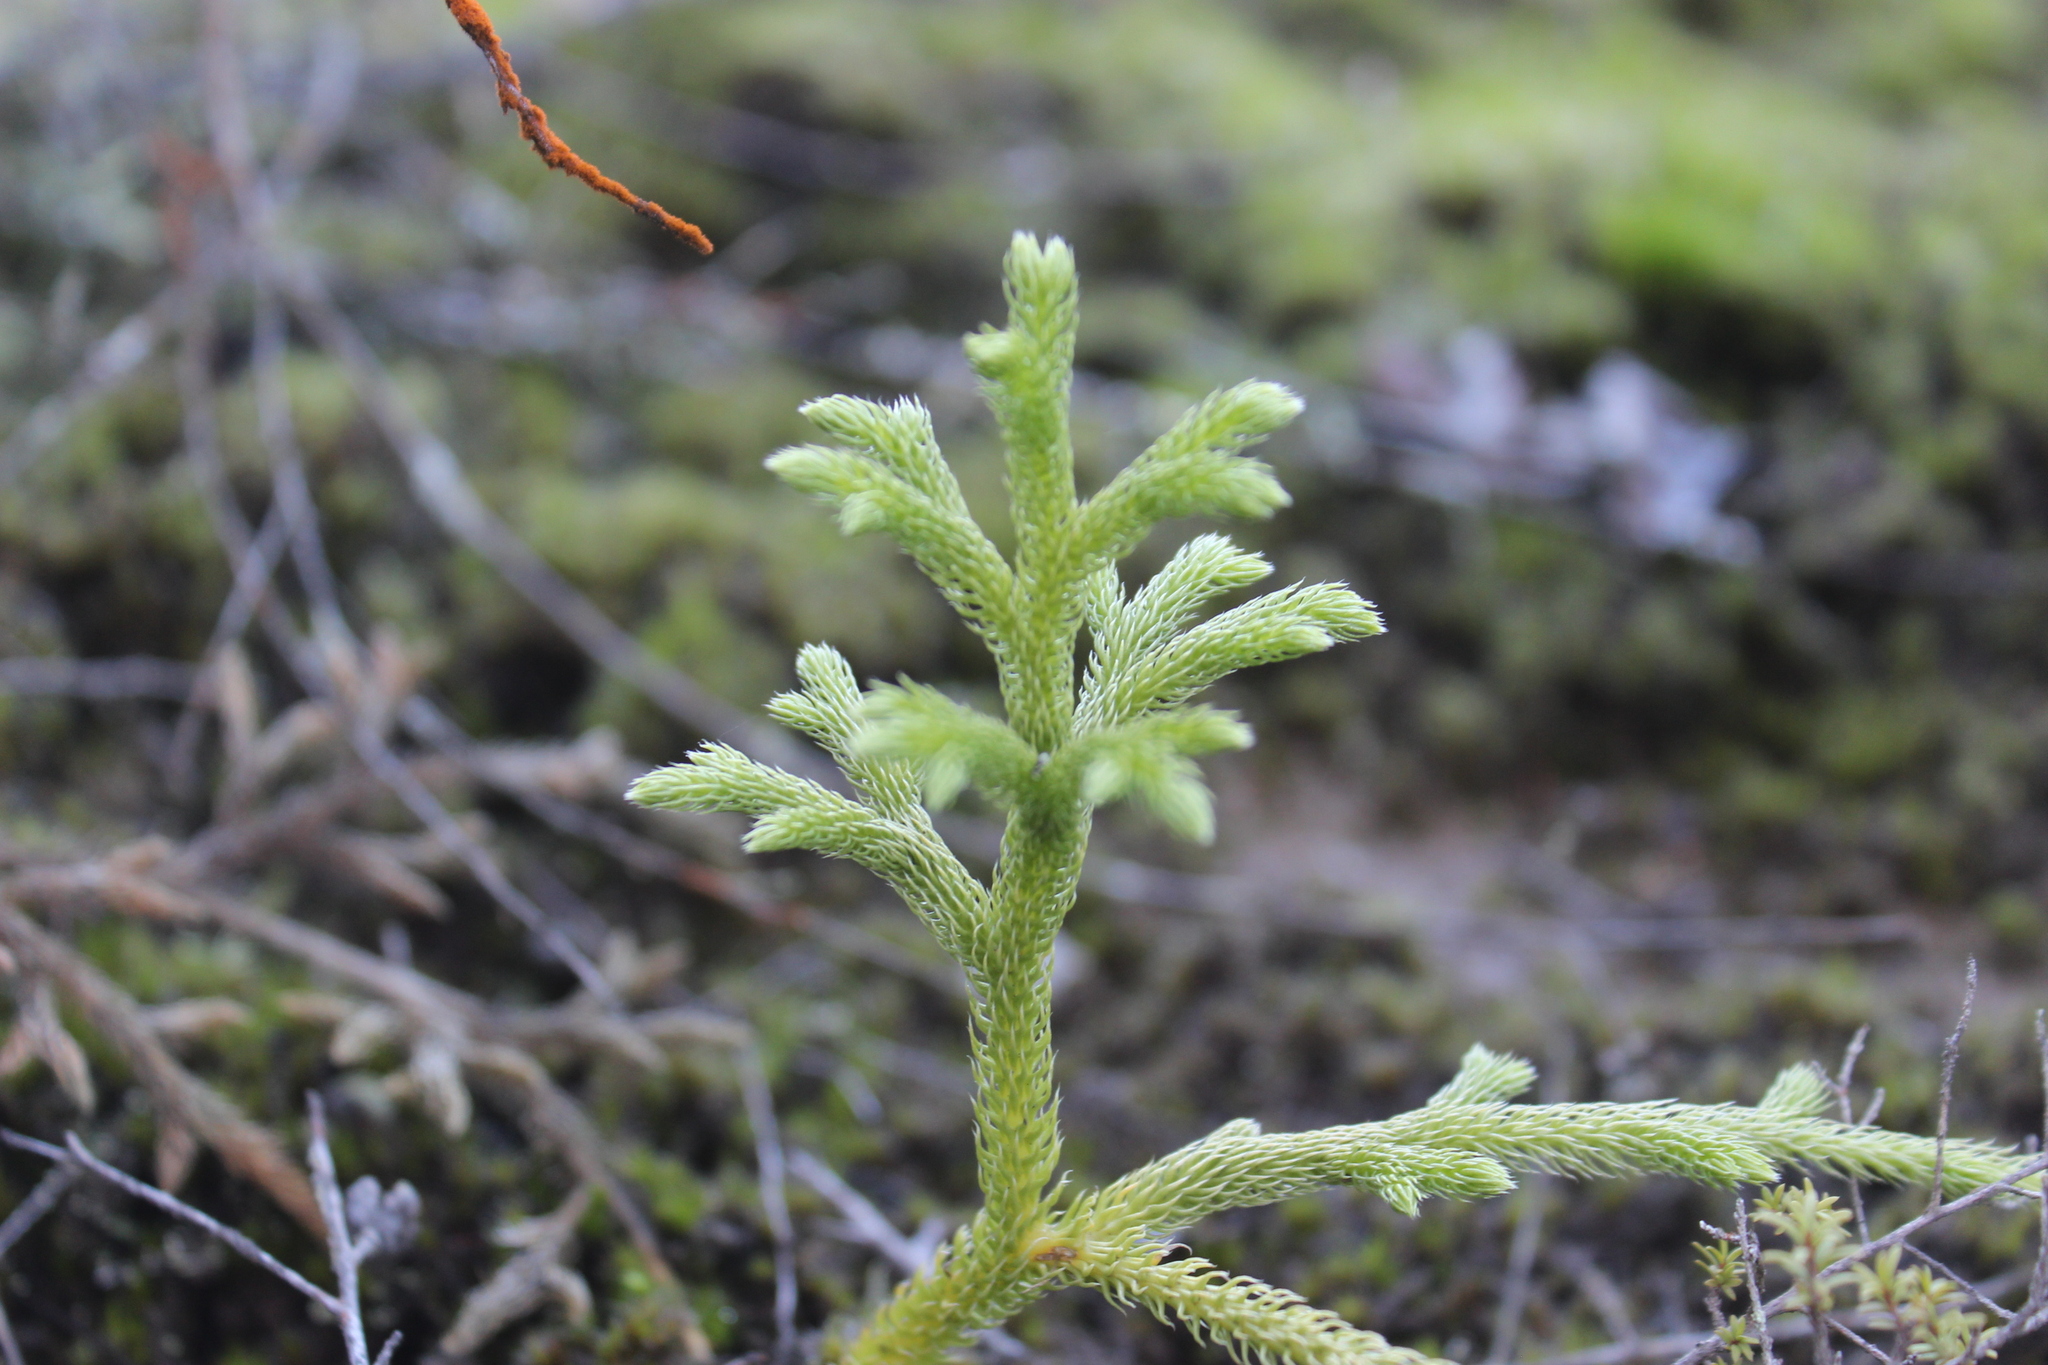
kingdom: Plantae
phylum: Tracheophyta
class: Lycopodiopsida
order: Lycopodiales
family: Lycopodiaceae
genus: Palhinhaea
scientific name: Palhinhaea cernua
